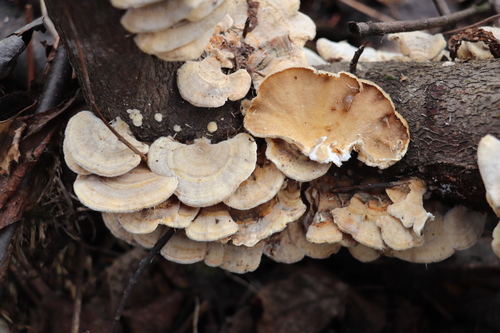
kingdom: Fungi
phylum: Basidiomycota
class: Agaricomycetes
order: Polyporales
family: Polyporaceae
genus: Trametes
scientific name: Trametes pubescens
